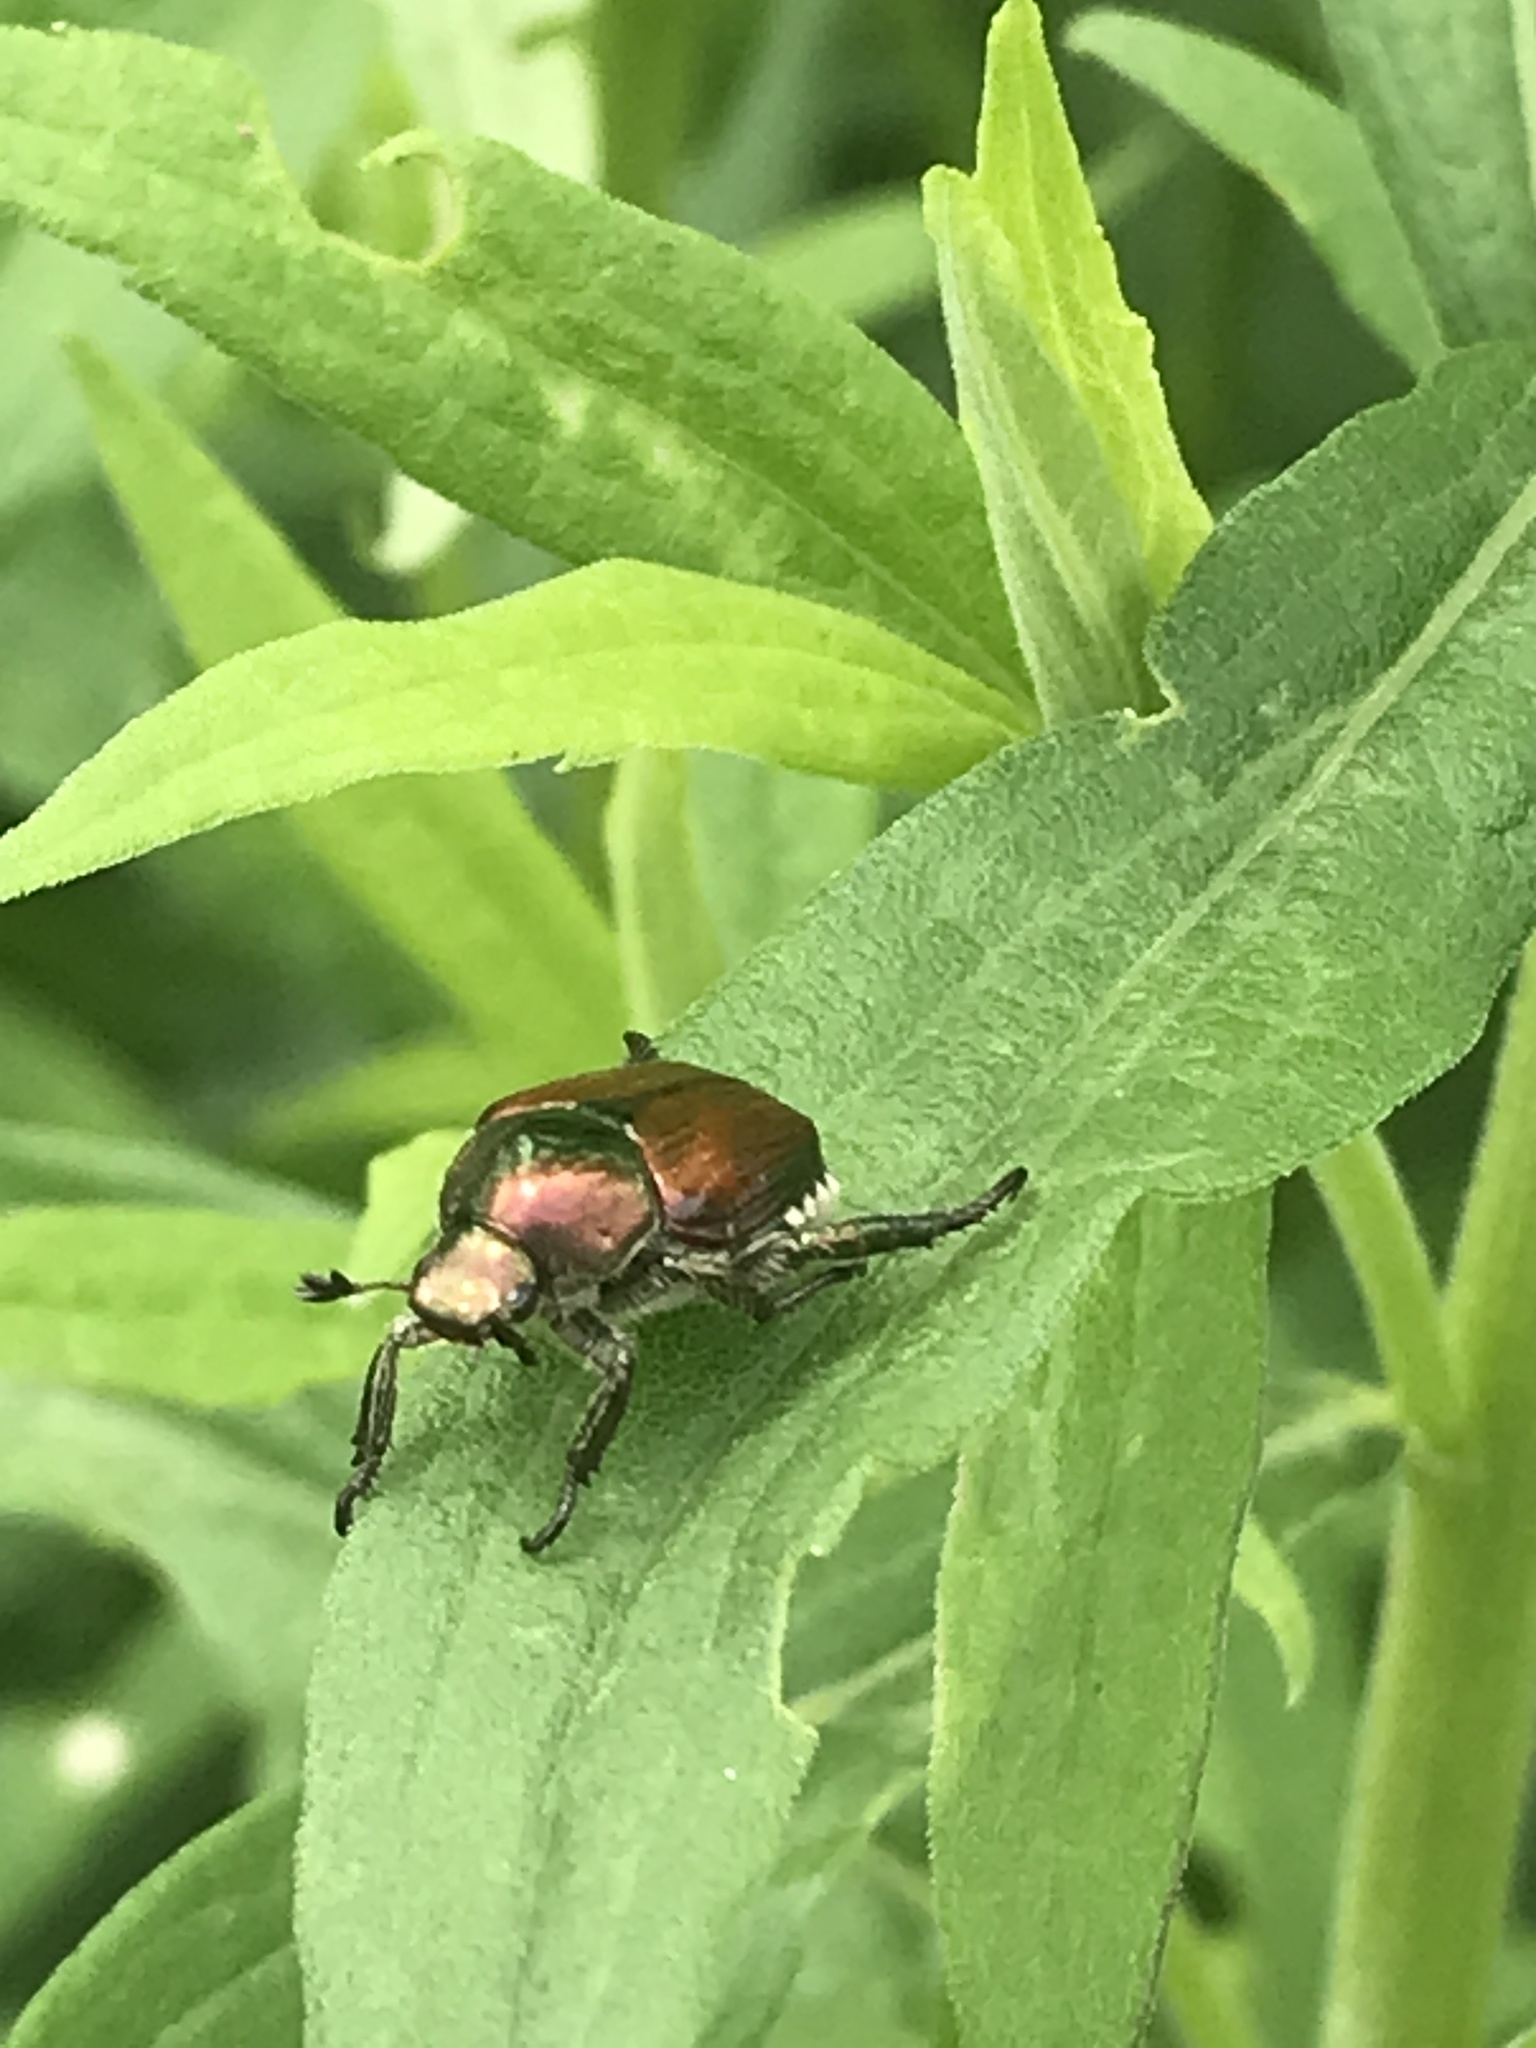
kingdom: Animalia
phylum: Arthropoda
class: Insecta
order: Coleoptera
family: Scarabaeidae
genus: Popillia
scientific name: Popillia japonica
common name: Japanese beetle
